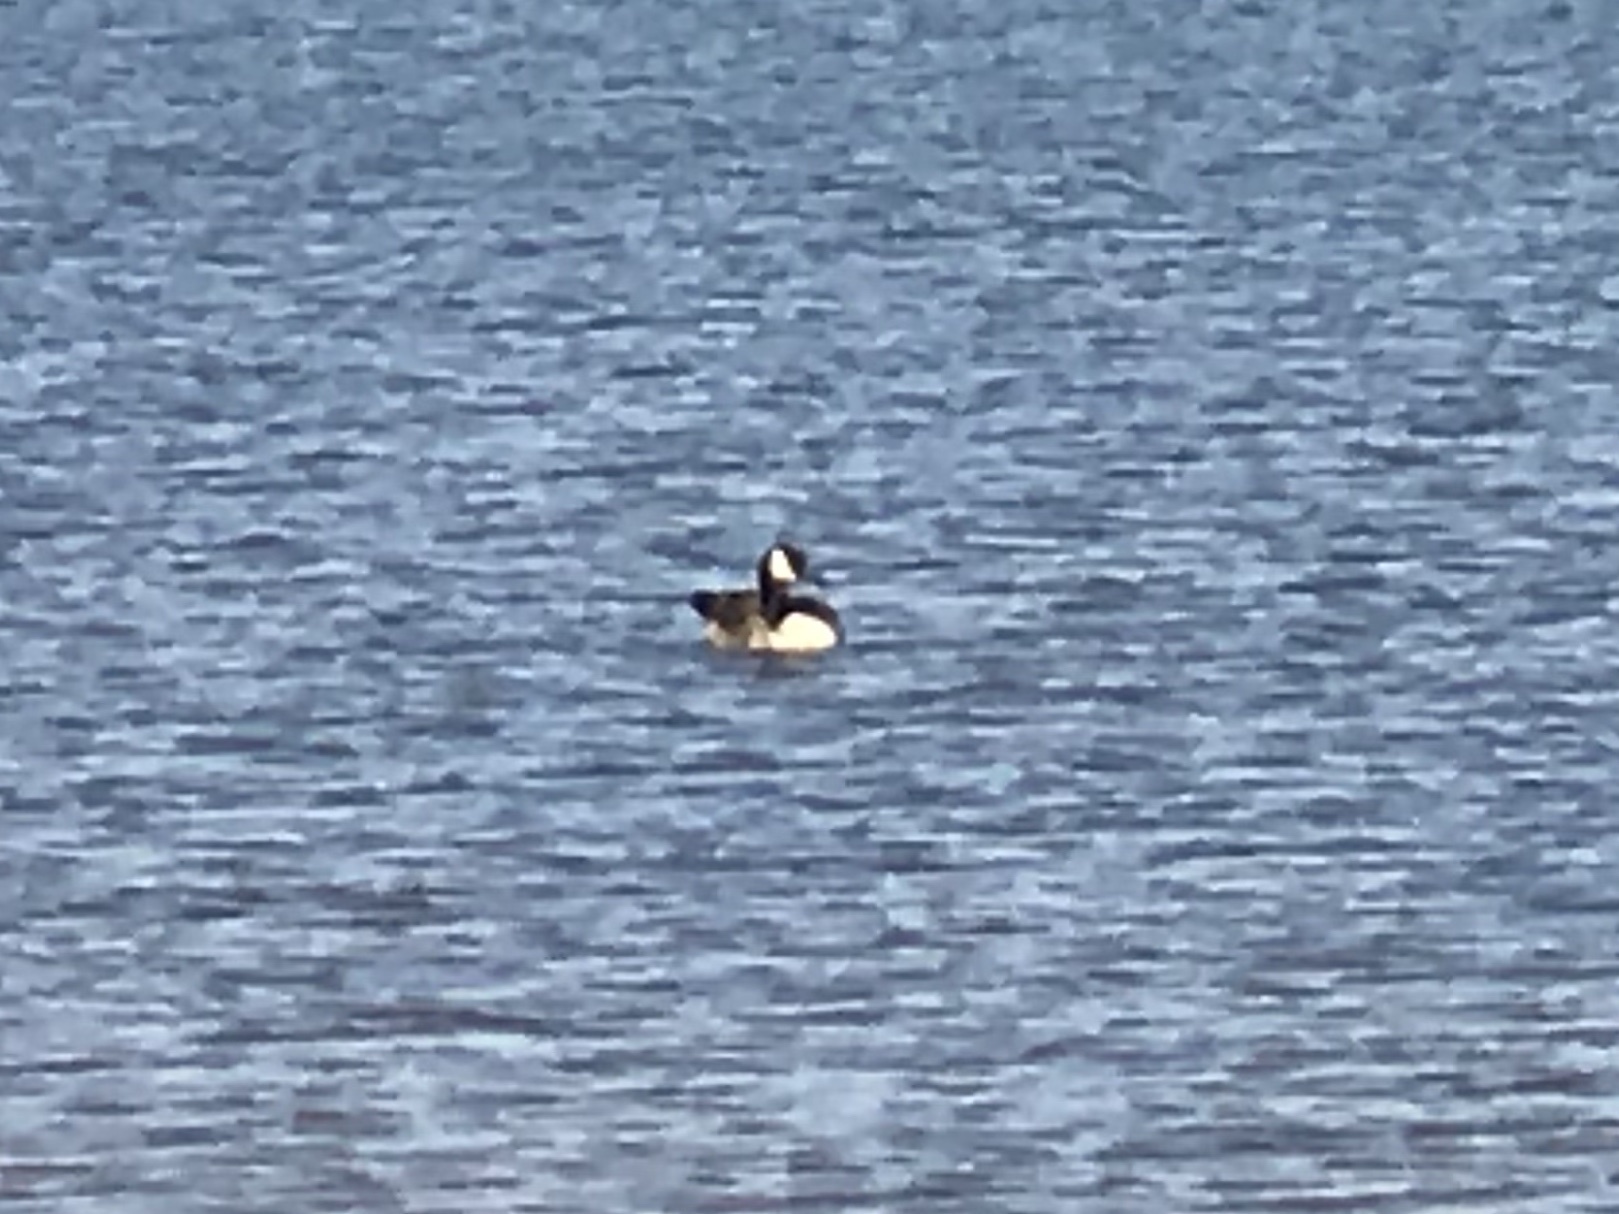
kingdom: Animalia
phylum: Chordata
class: Aves
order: Anseriformes
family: Anatidae
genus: Branta
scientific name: Branta canadensis
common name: Canada goose
